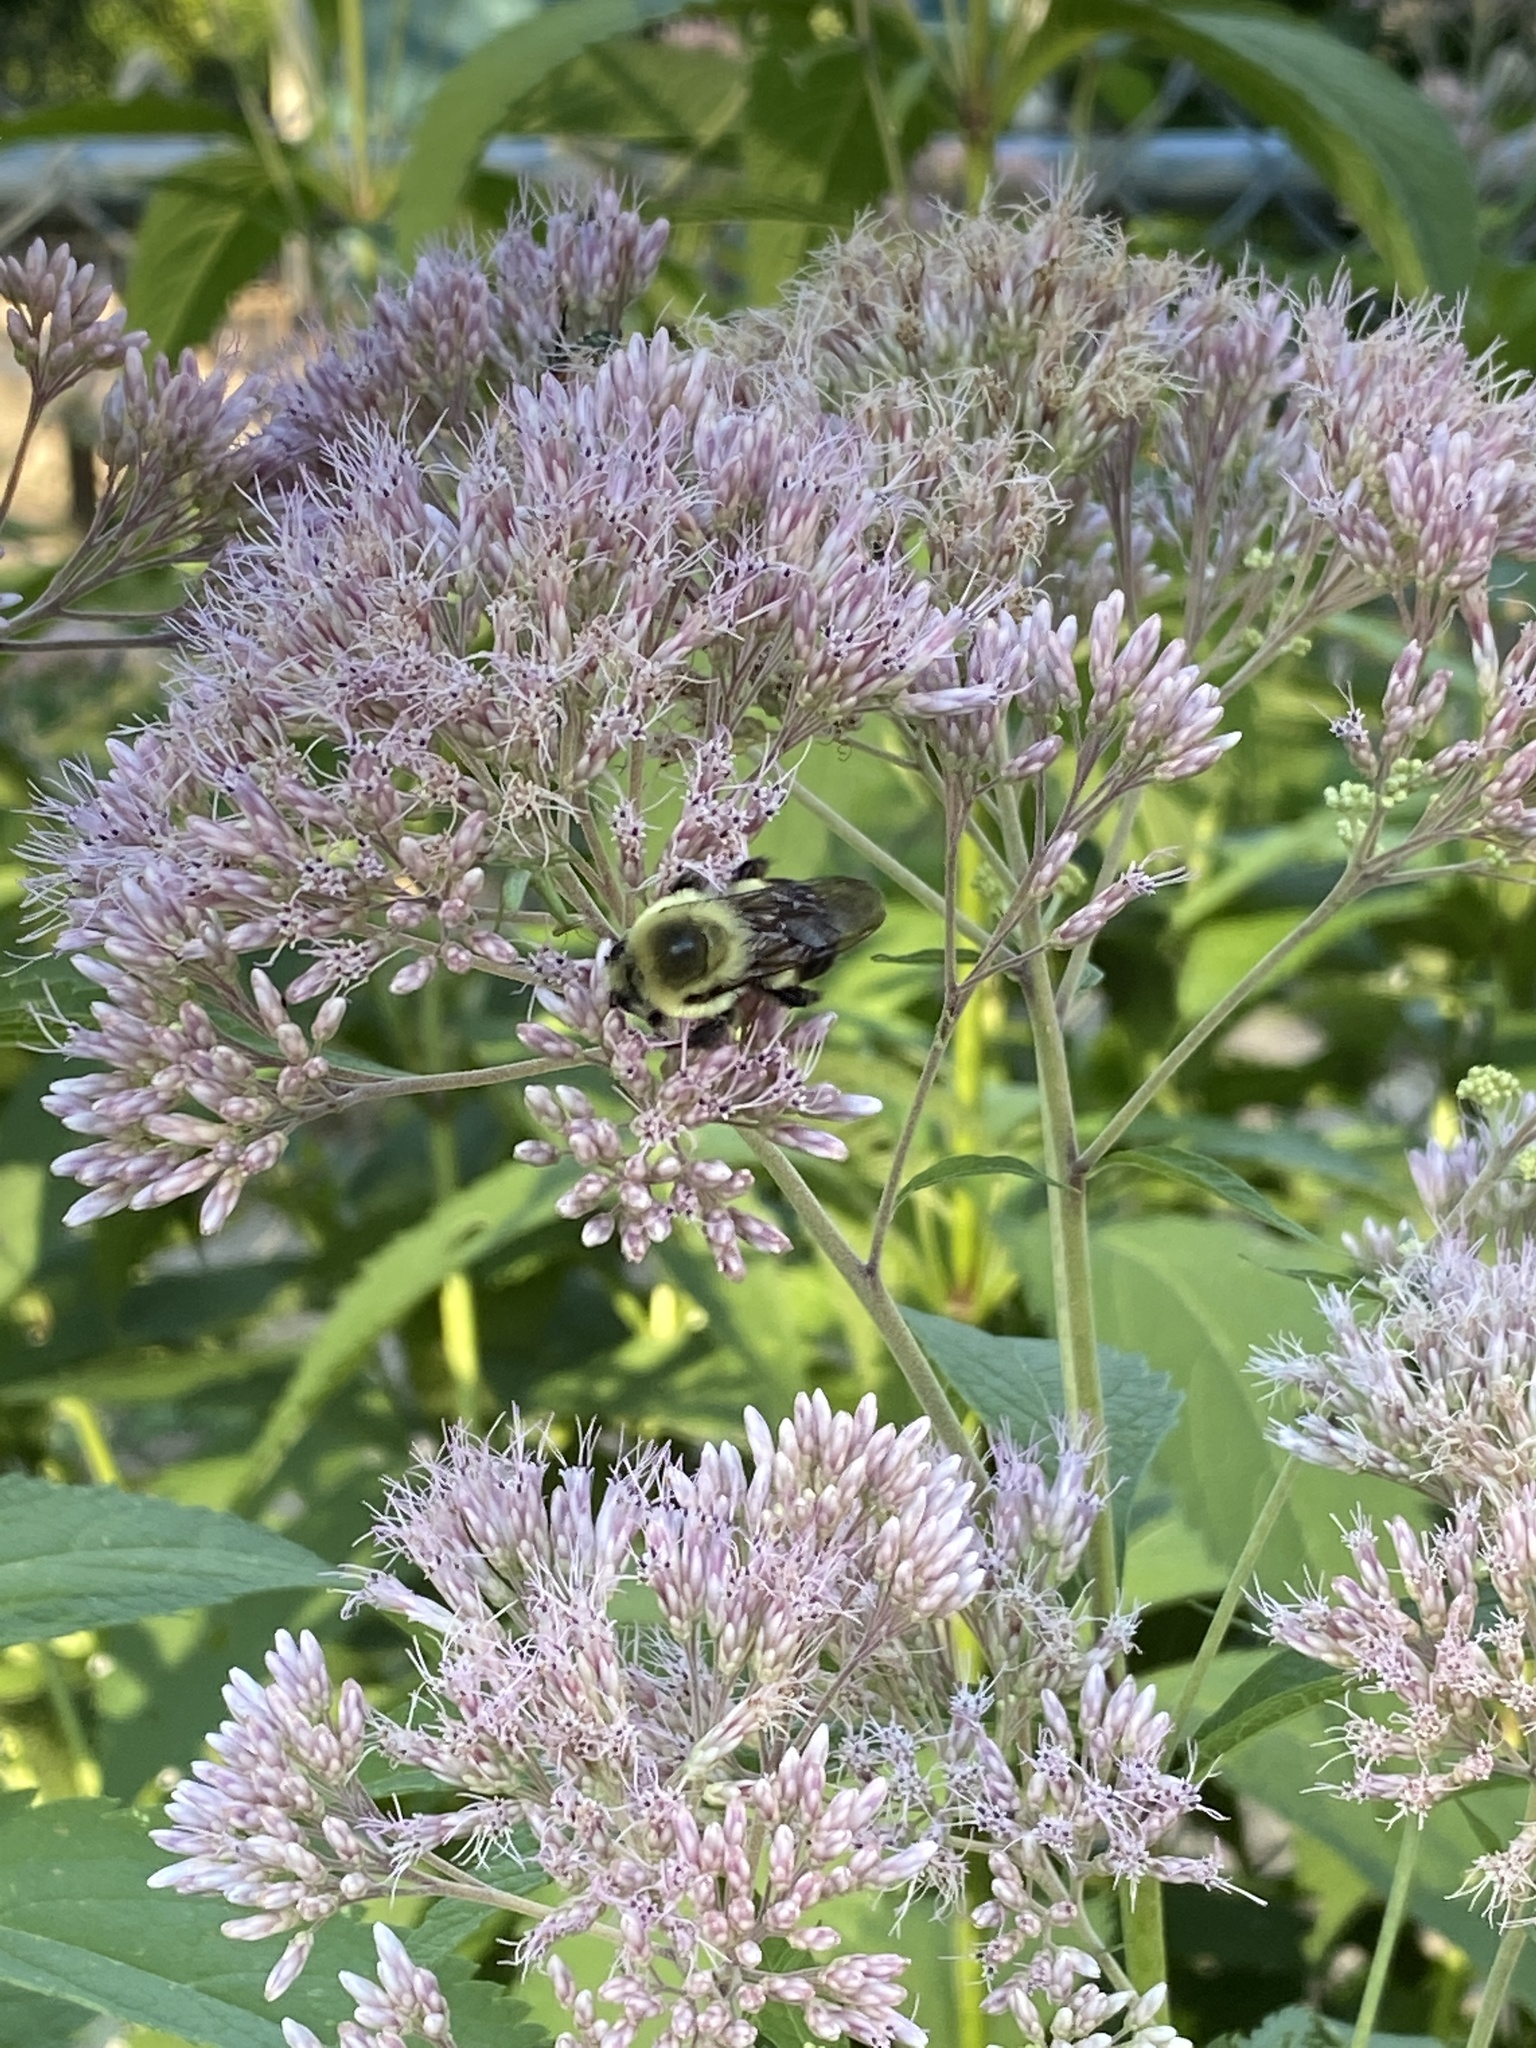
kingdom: Animalia
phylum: Arthropoda
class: Insecta
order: Hymenoptera
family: Apidae
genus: Bombus
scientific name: Bombus griseocollis
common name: Brown-belted bumble bee
